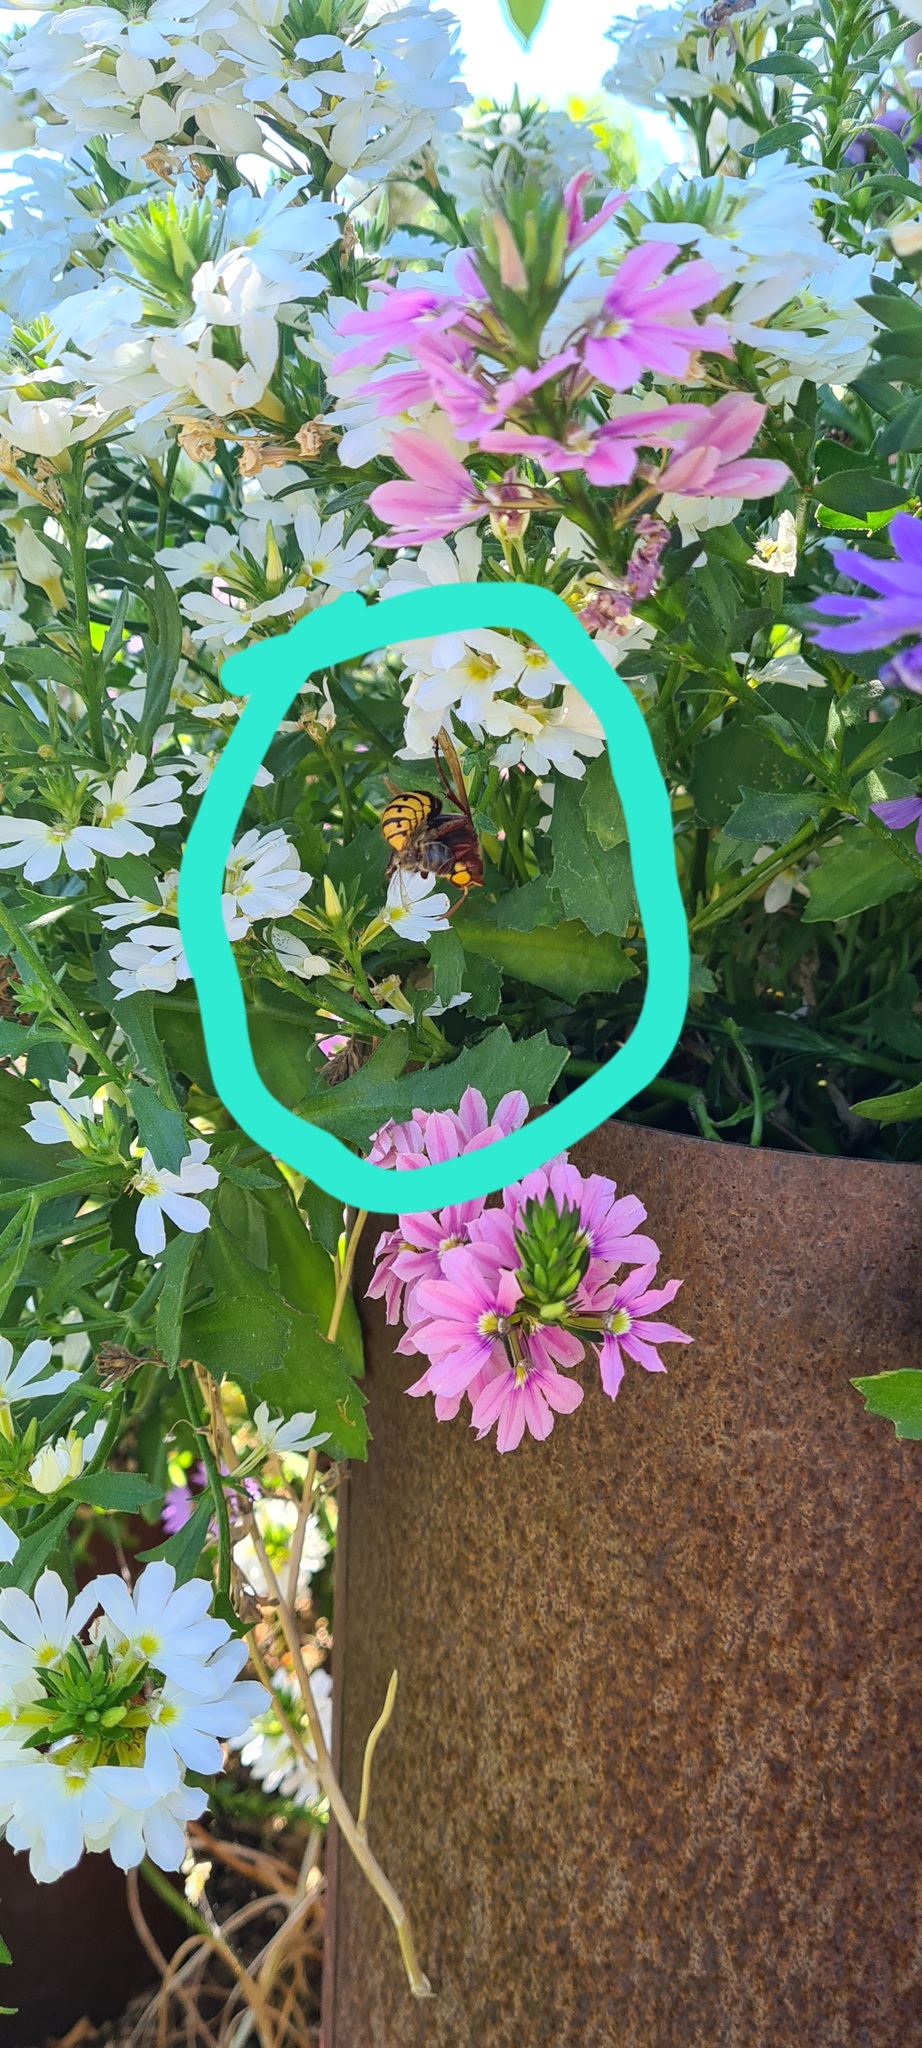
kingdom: Animalia
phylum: Arthropoda
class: Insecta
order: Hymenoptera
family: Vespidae
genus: Vespa
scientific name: Vespa crabro
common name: Hornet
